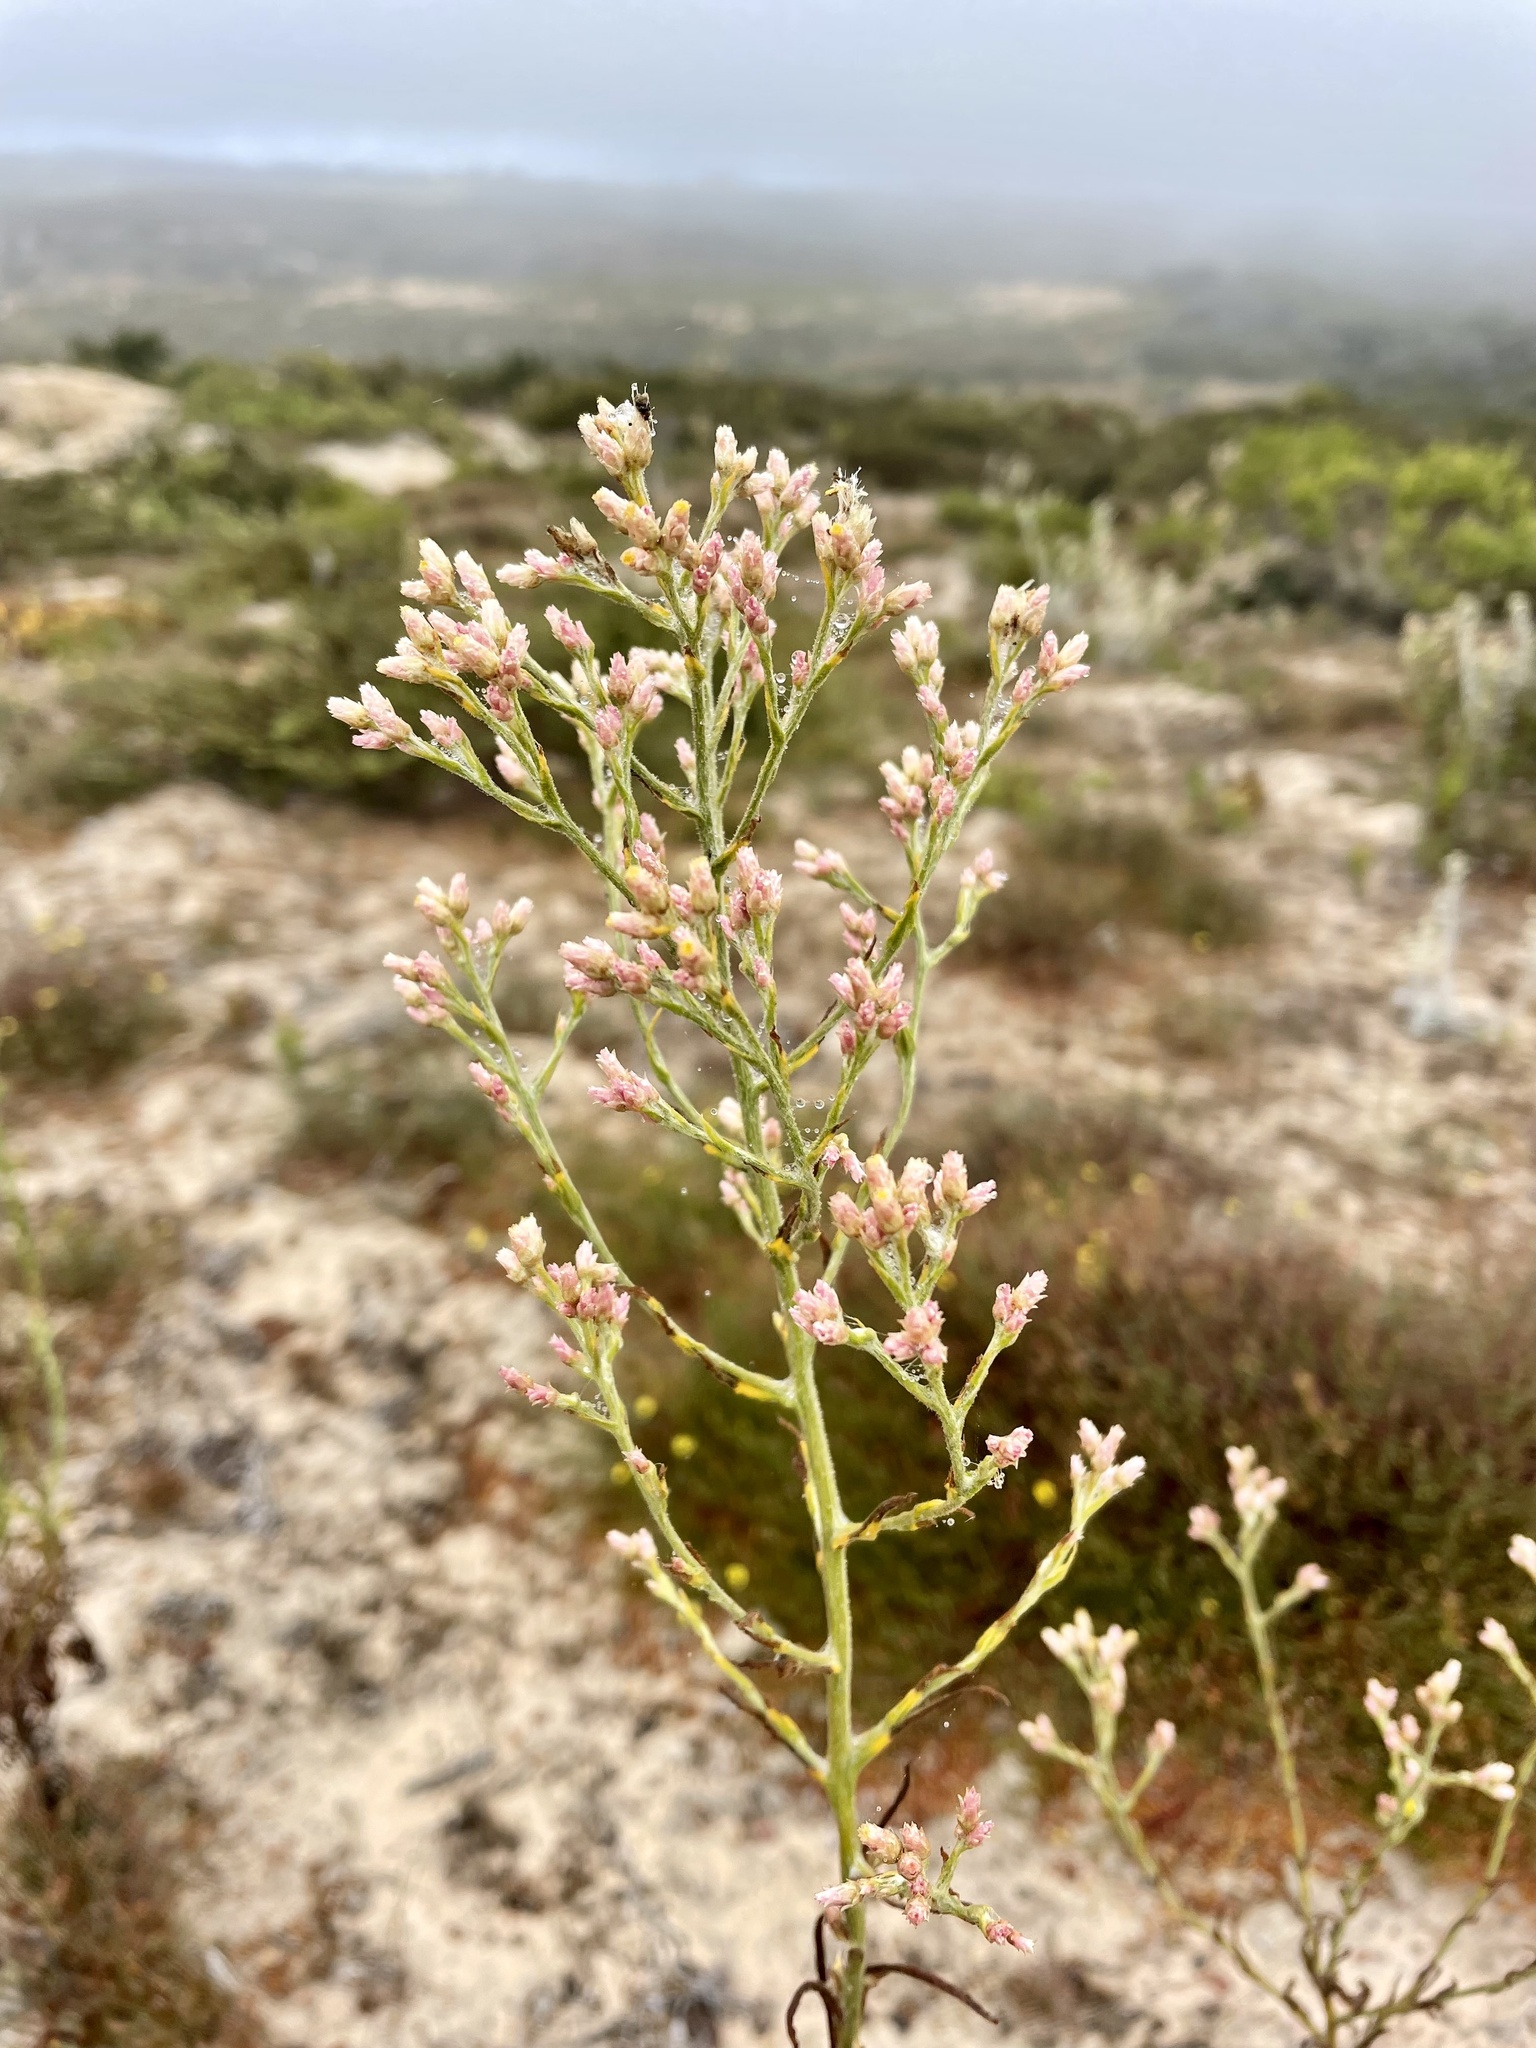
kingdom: Plantae
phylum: Tracheophyta
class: Magnoliopsida
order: Asterales
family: Asteraceae
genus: Pseudognaphalium
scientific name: Pseudognaphalium ramosissimum
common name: Pink rabbit-tobacco
